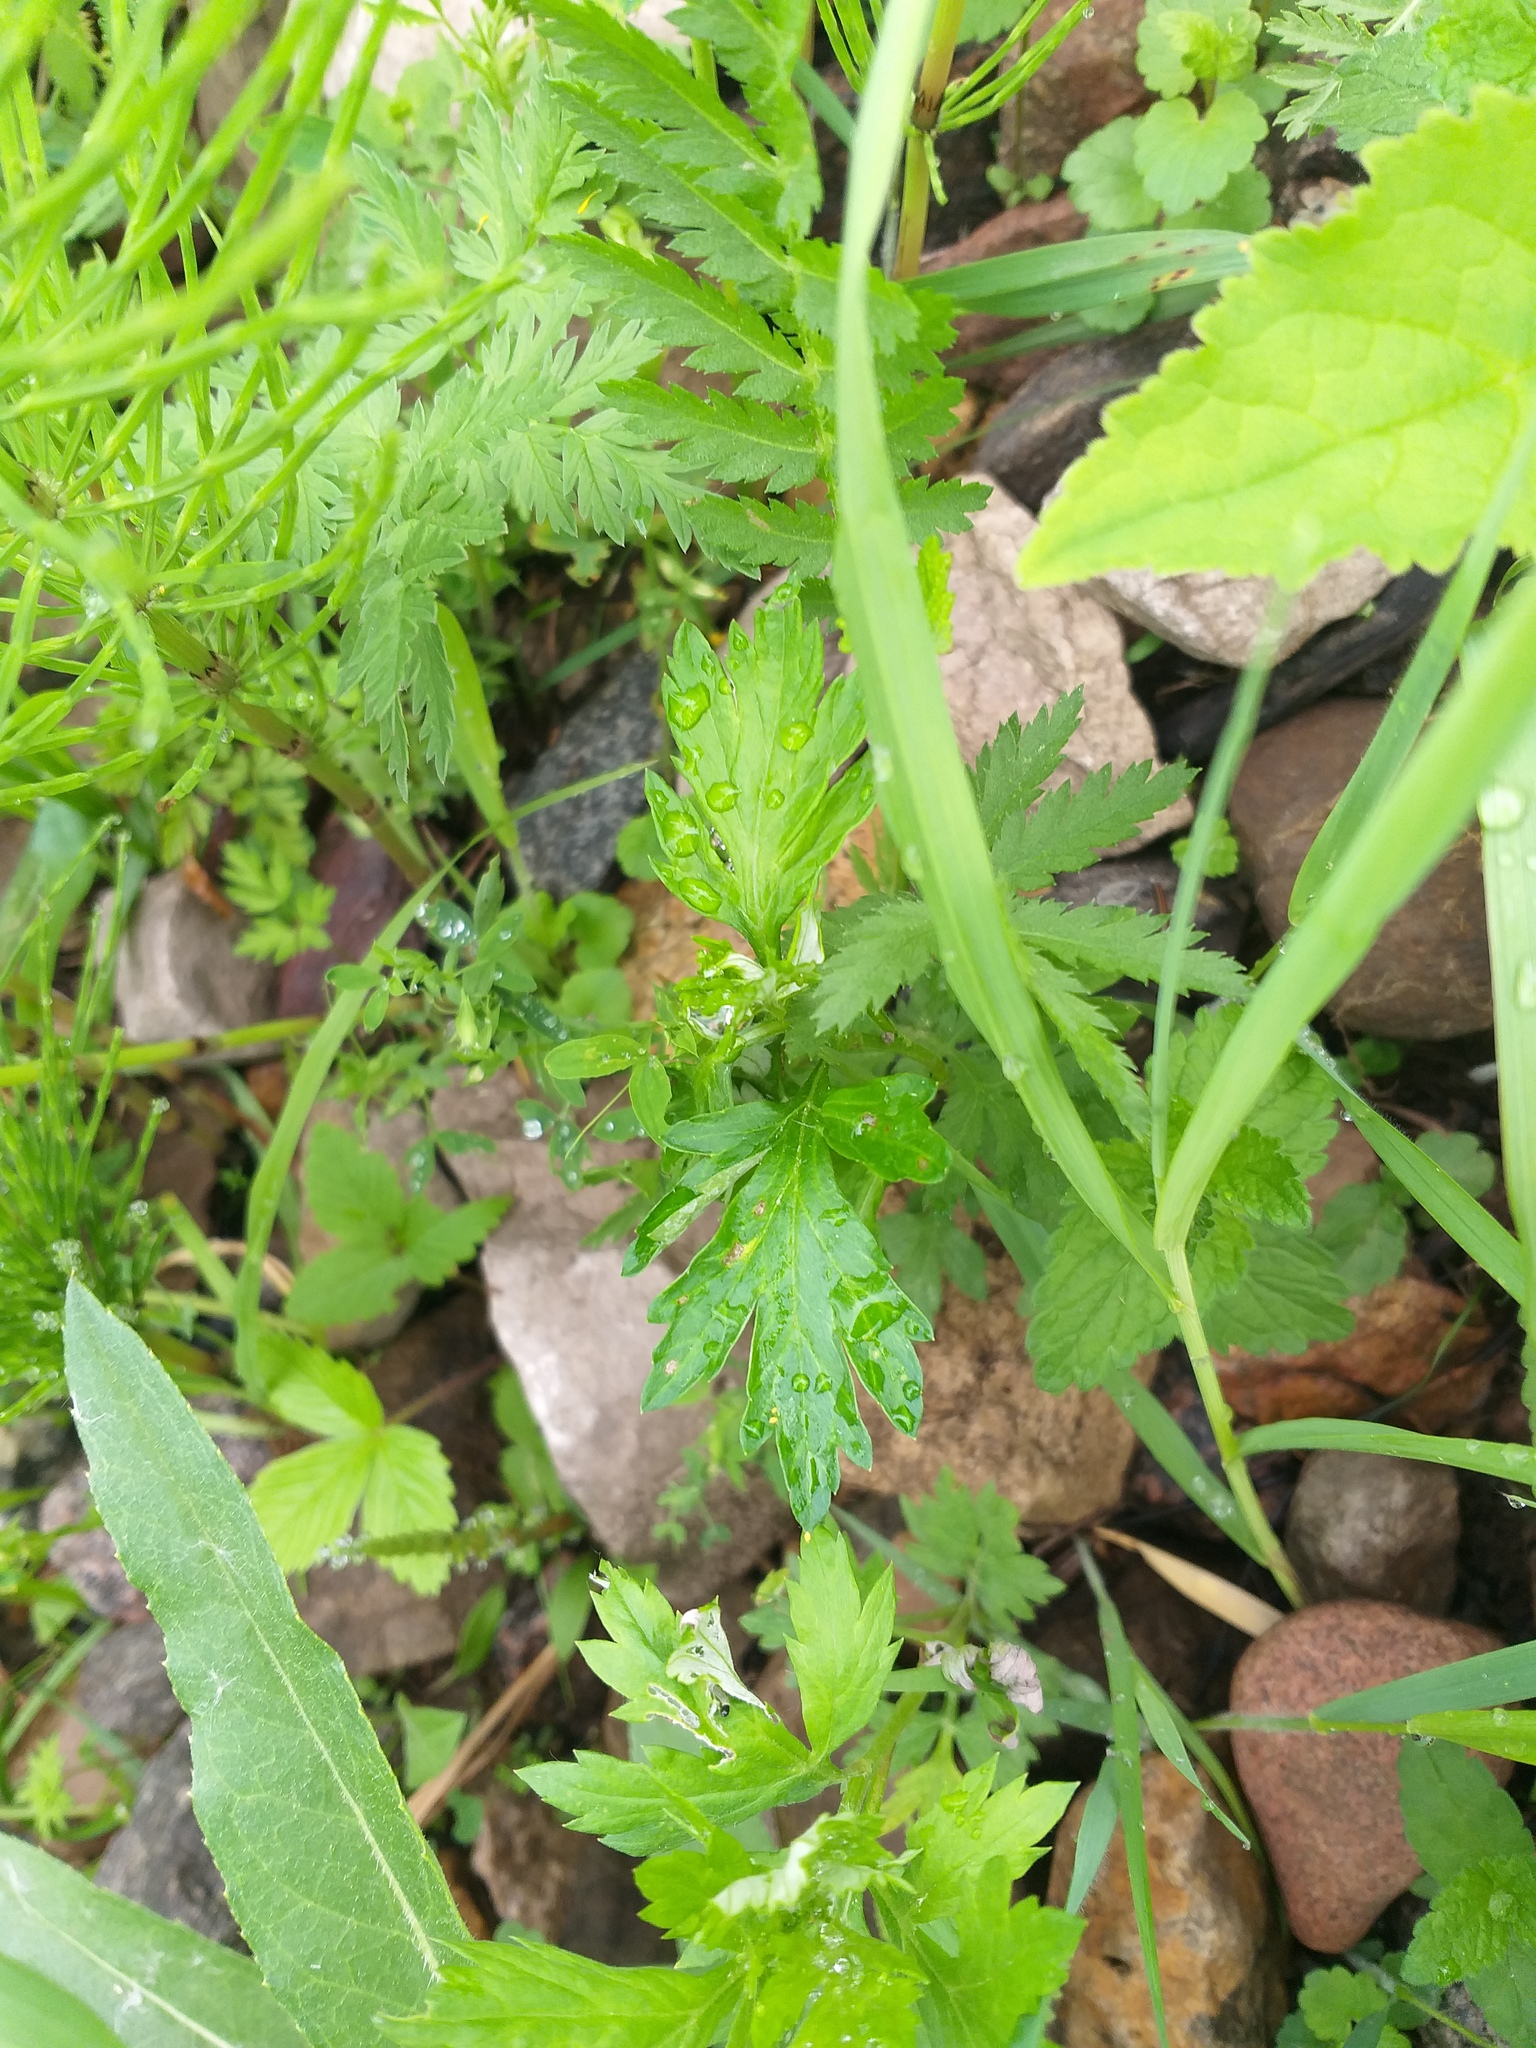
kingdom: Plantae
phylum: Tracheophyta
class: Magnoliopsida
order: Asterales
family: Asteraceae
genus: Artemisia
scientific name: Artemisia vulgaris
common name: Mugwort
